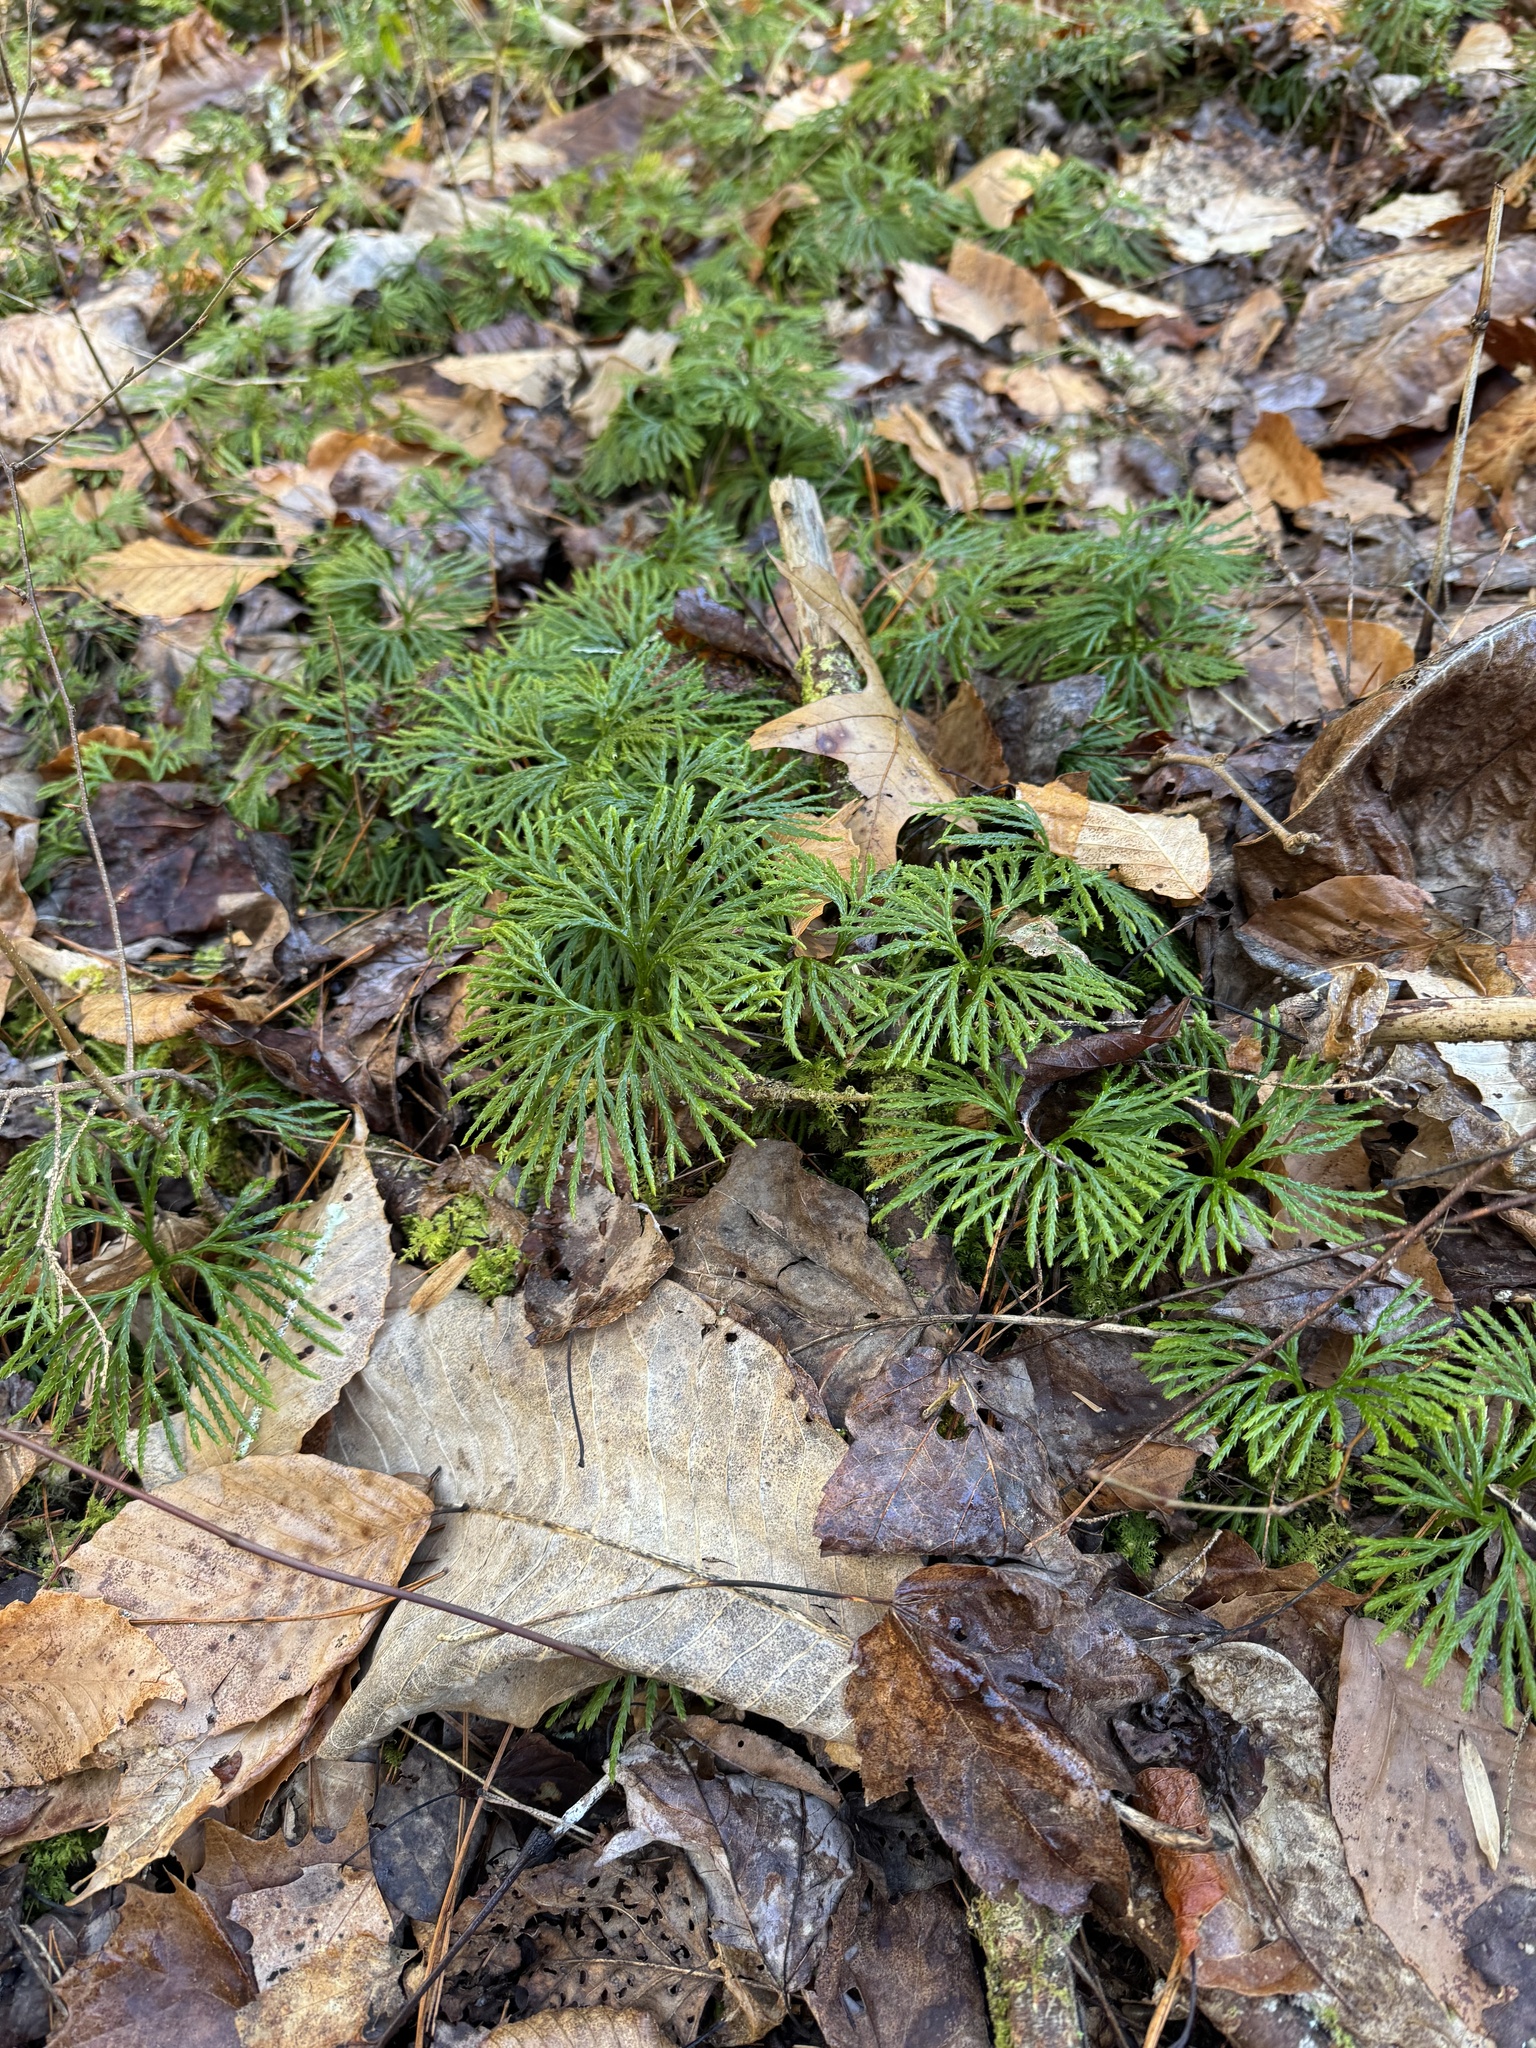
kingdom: Plantae
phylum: Tracheophyta
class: Lycopodiopsida
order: Lycopodiales
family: Lycopodiaceae
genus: Diphasiastrum
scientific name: Diphasiastrum digitatum
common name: Southern running-pine
